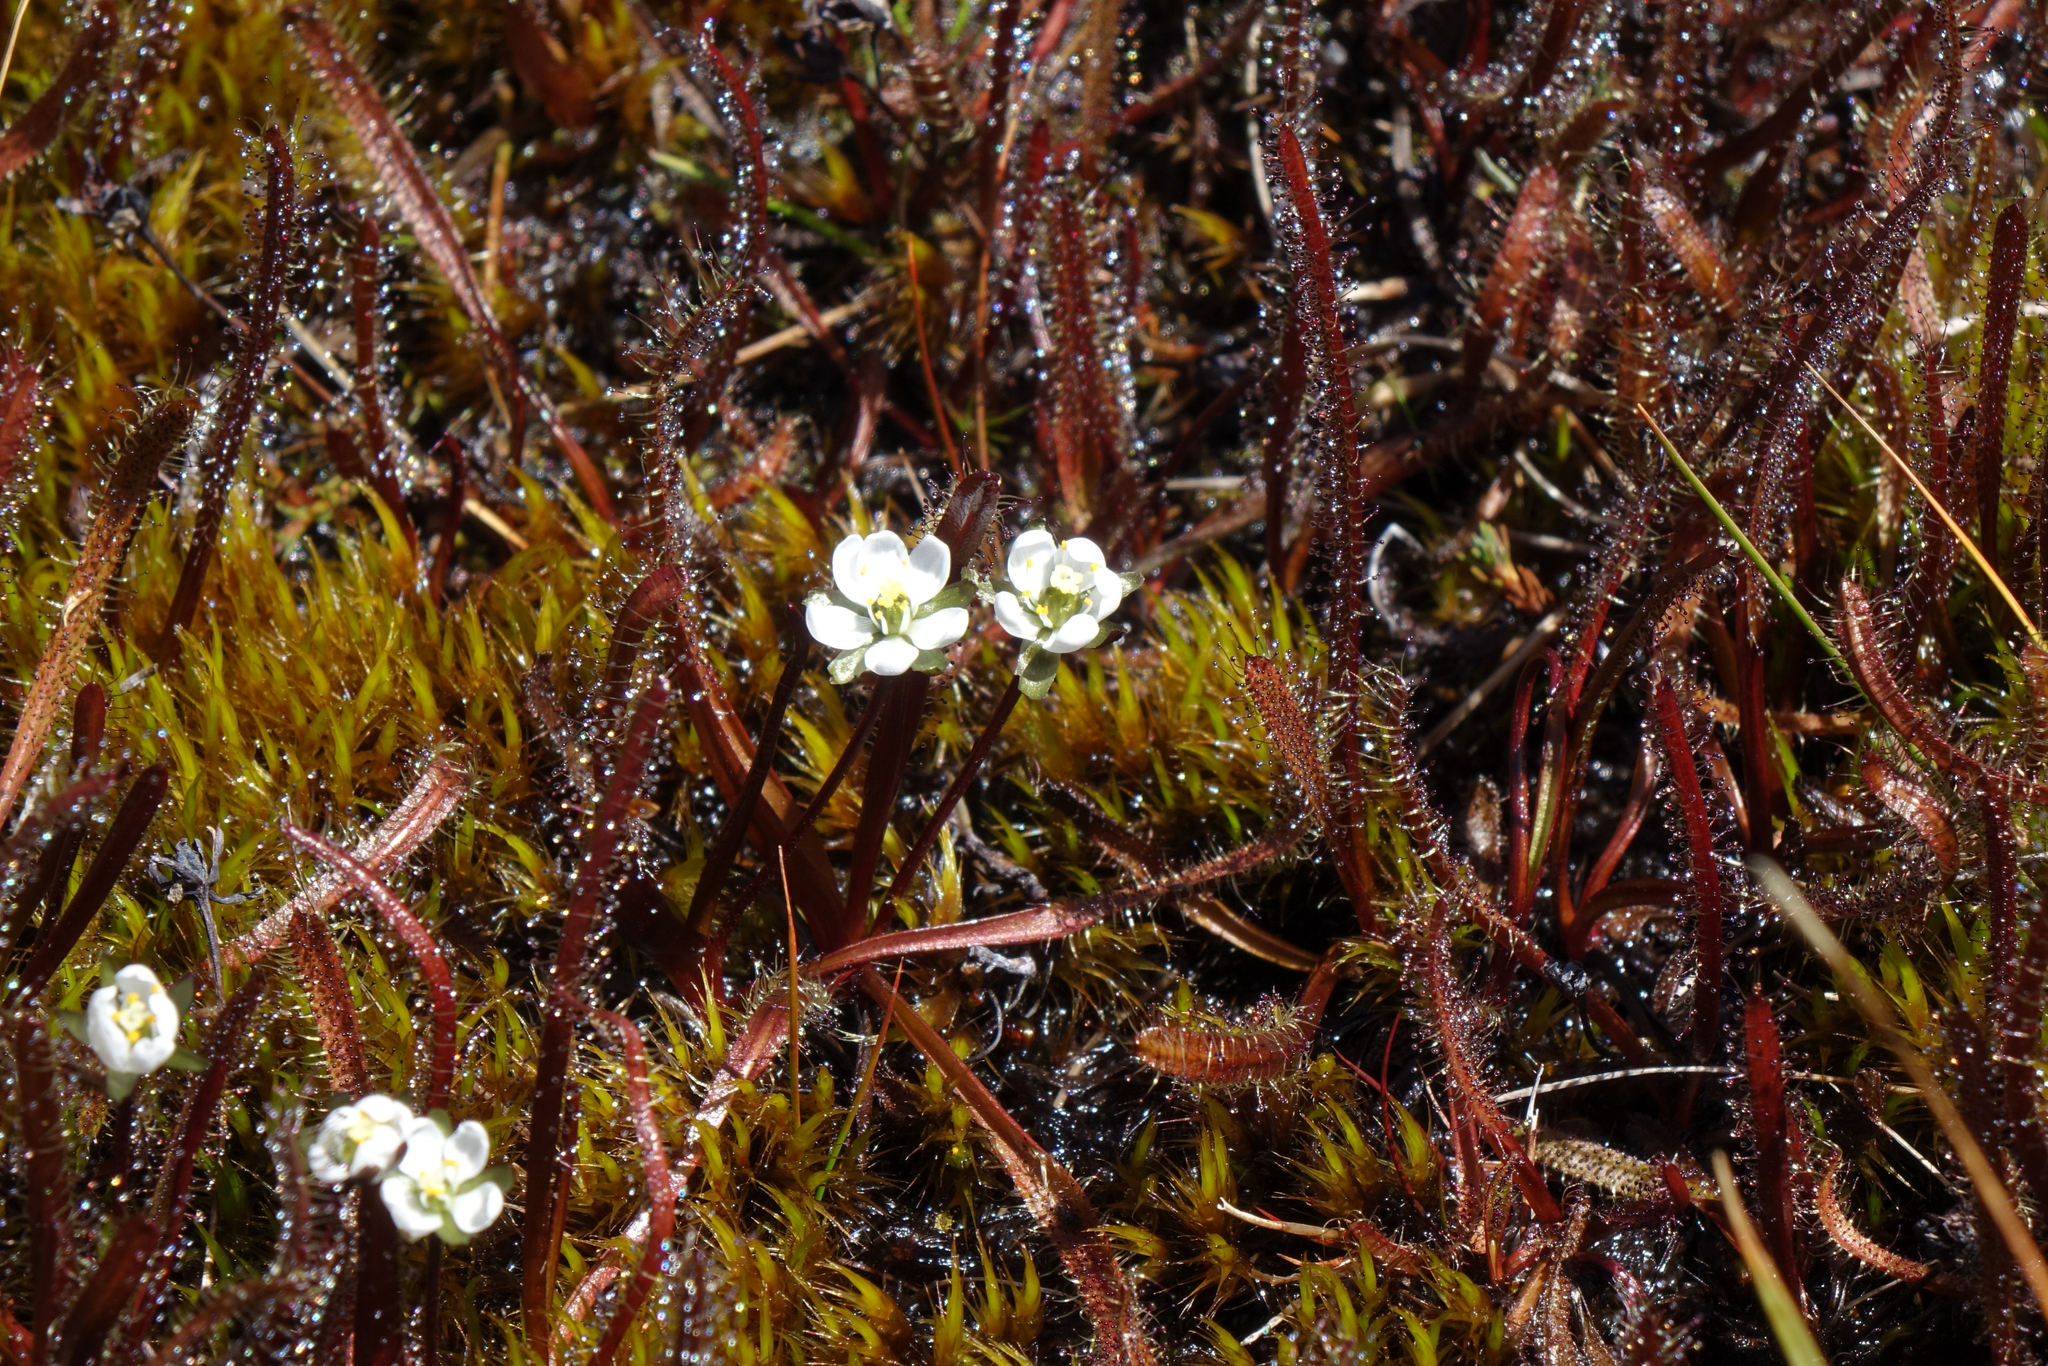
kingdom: Plantae
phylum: Tracheophyta
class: Magnoliopsida
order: Caryophyllales
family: Droseraceae
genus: Drosera
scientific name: Drosera arcturi
